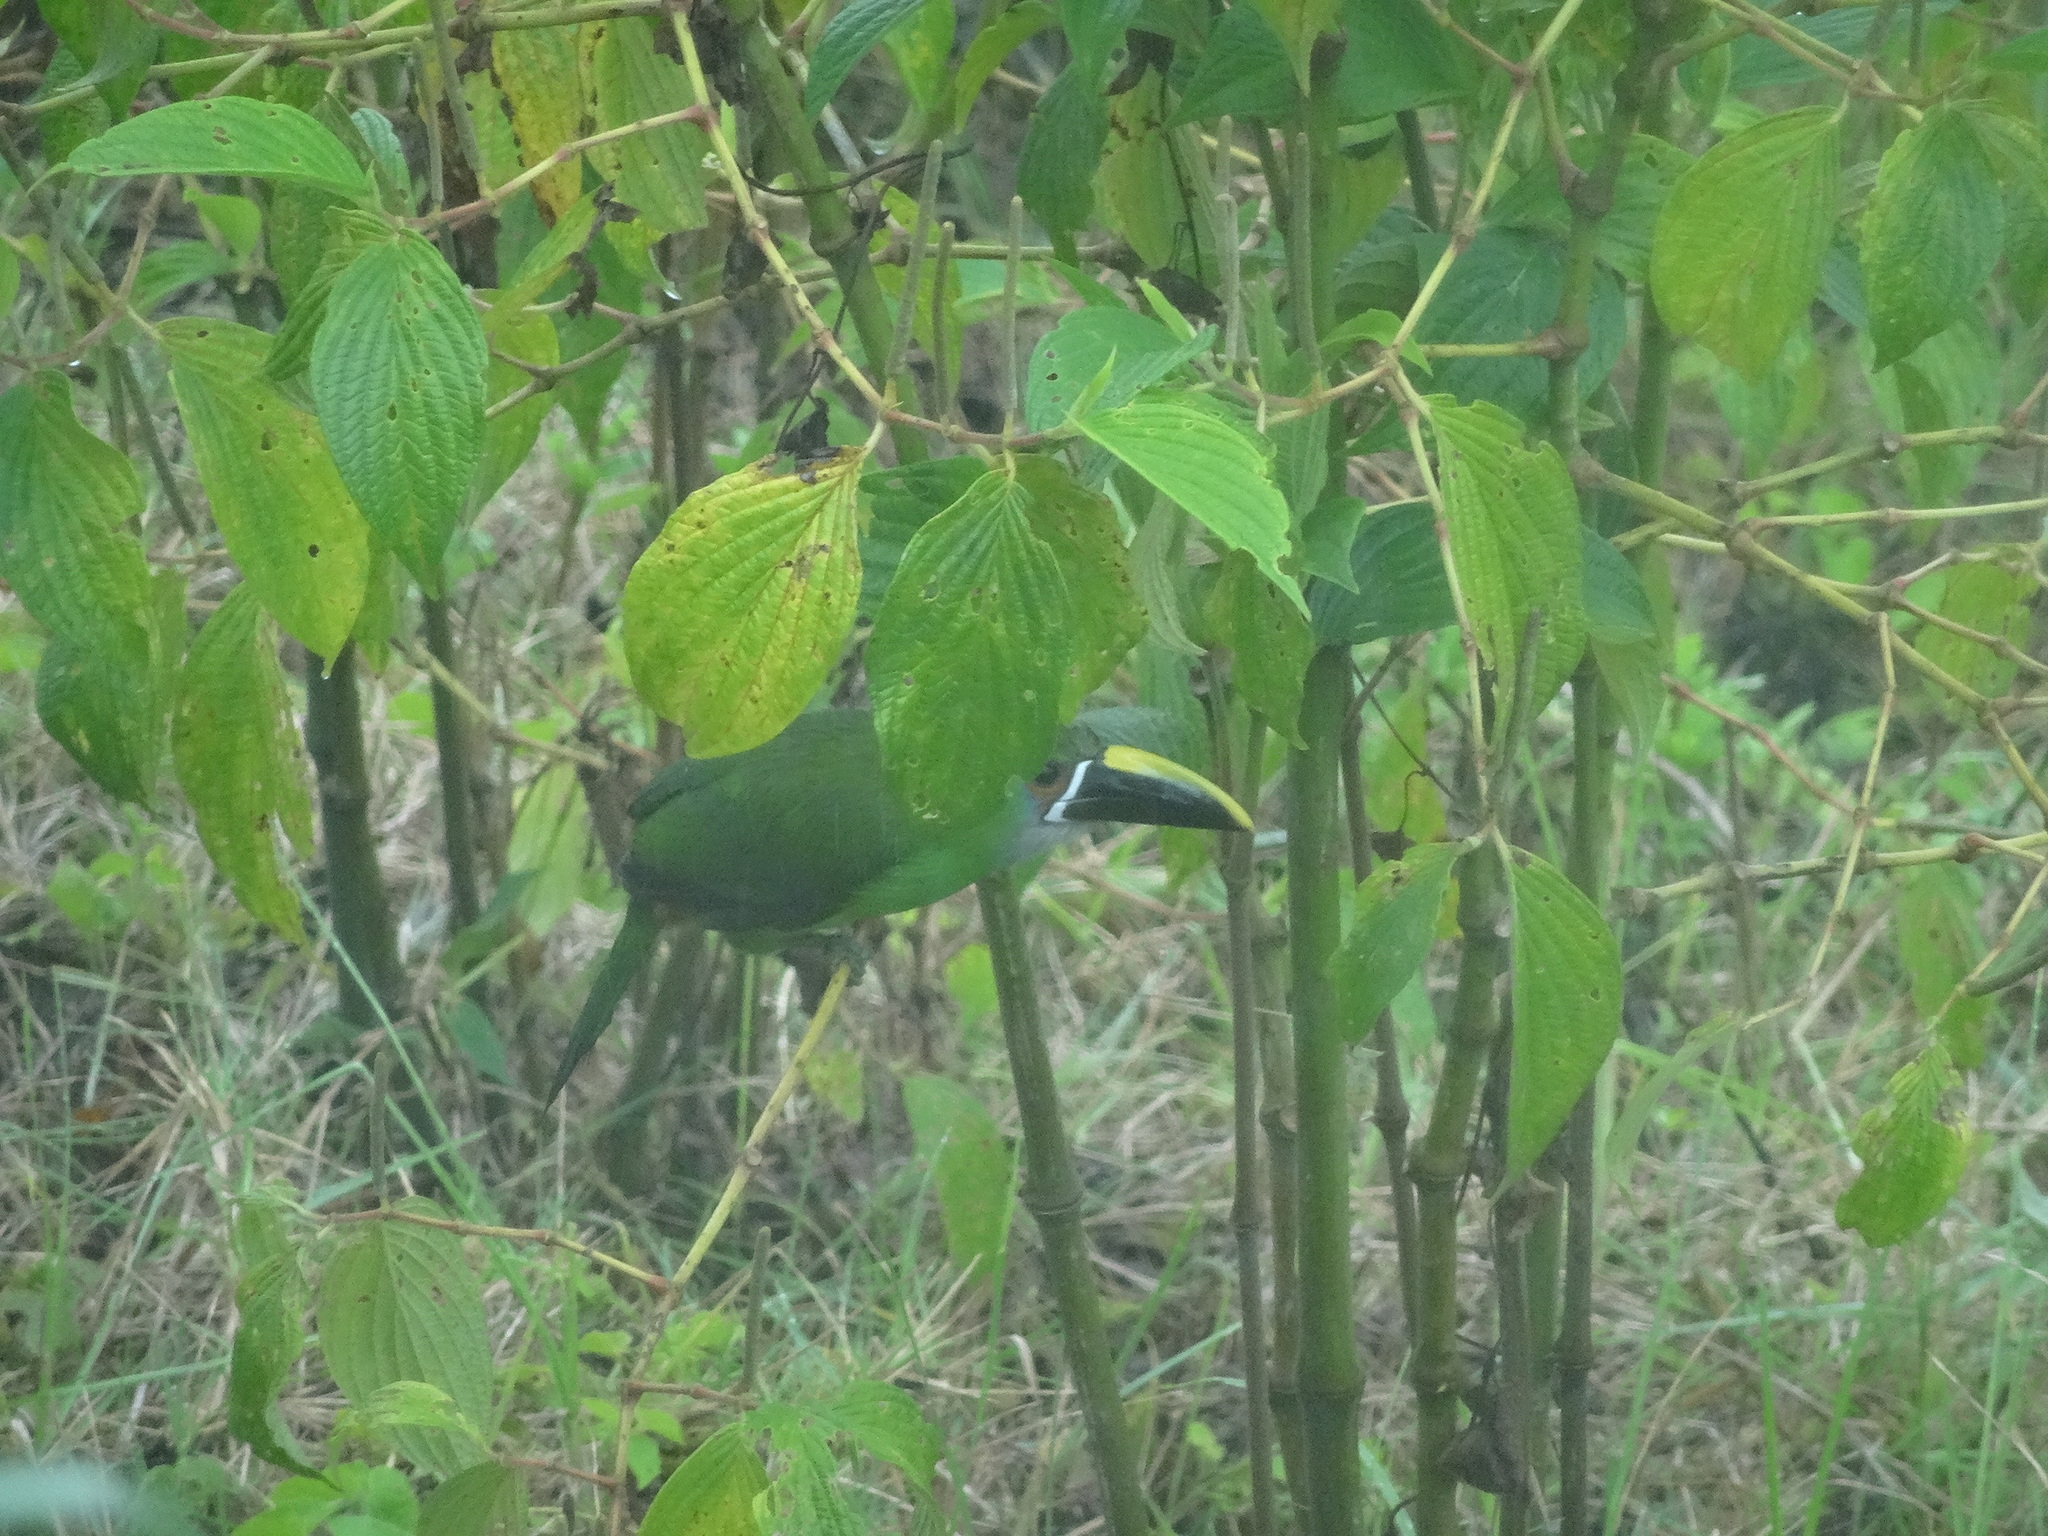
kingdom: Animalia
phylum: Chordata
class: Aves
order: Piciformes
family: Ramphastidae
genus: Aulacorhynchus
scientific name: Aulacorhynchus albivitta
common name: White-throated toucanet
